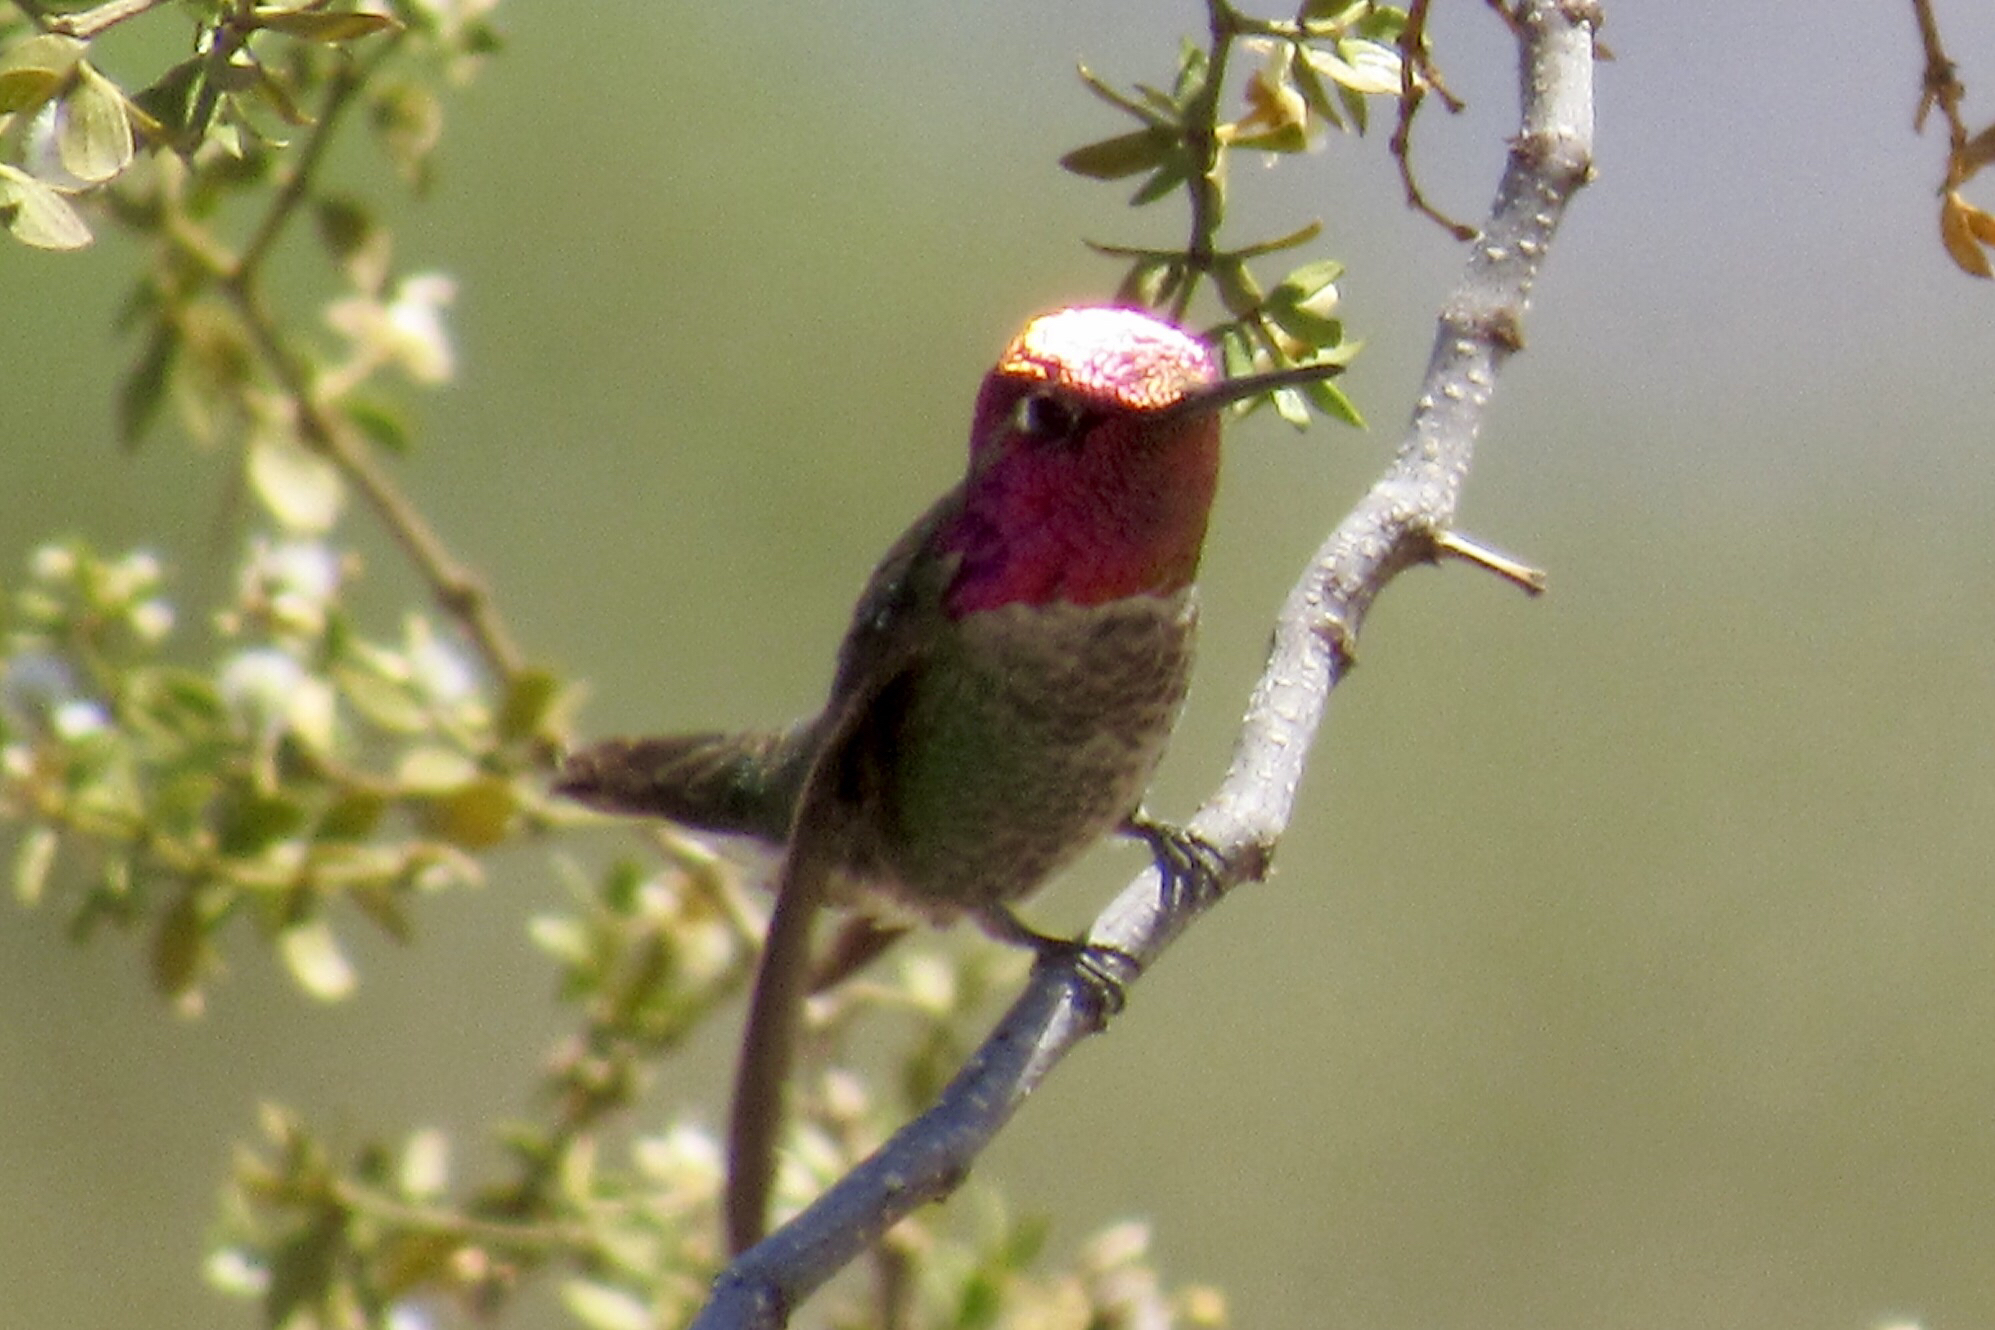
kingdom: Animalia
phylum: Chordata
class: Aves
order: Apodiformes
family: Trochilidae
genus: Calypte
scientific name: Calypte anna
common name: Anna's hummingbird
